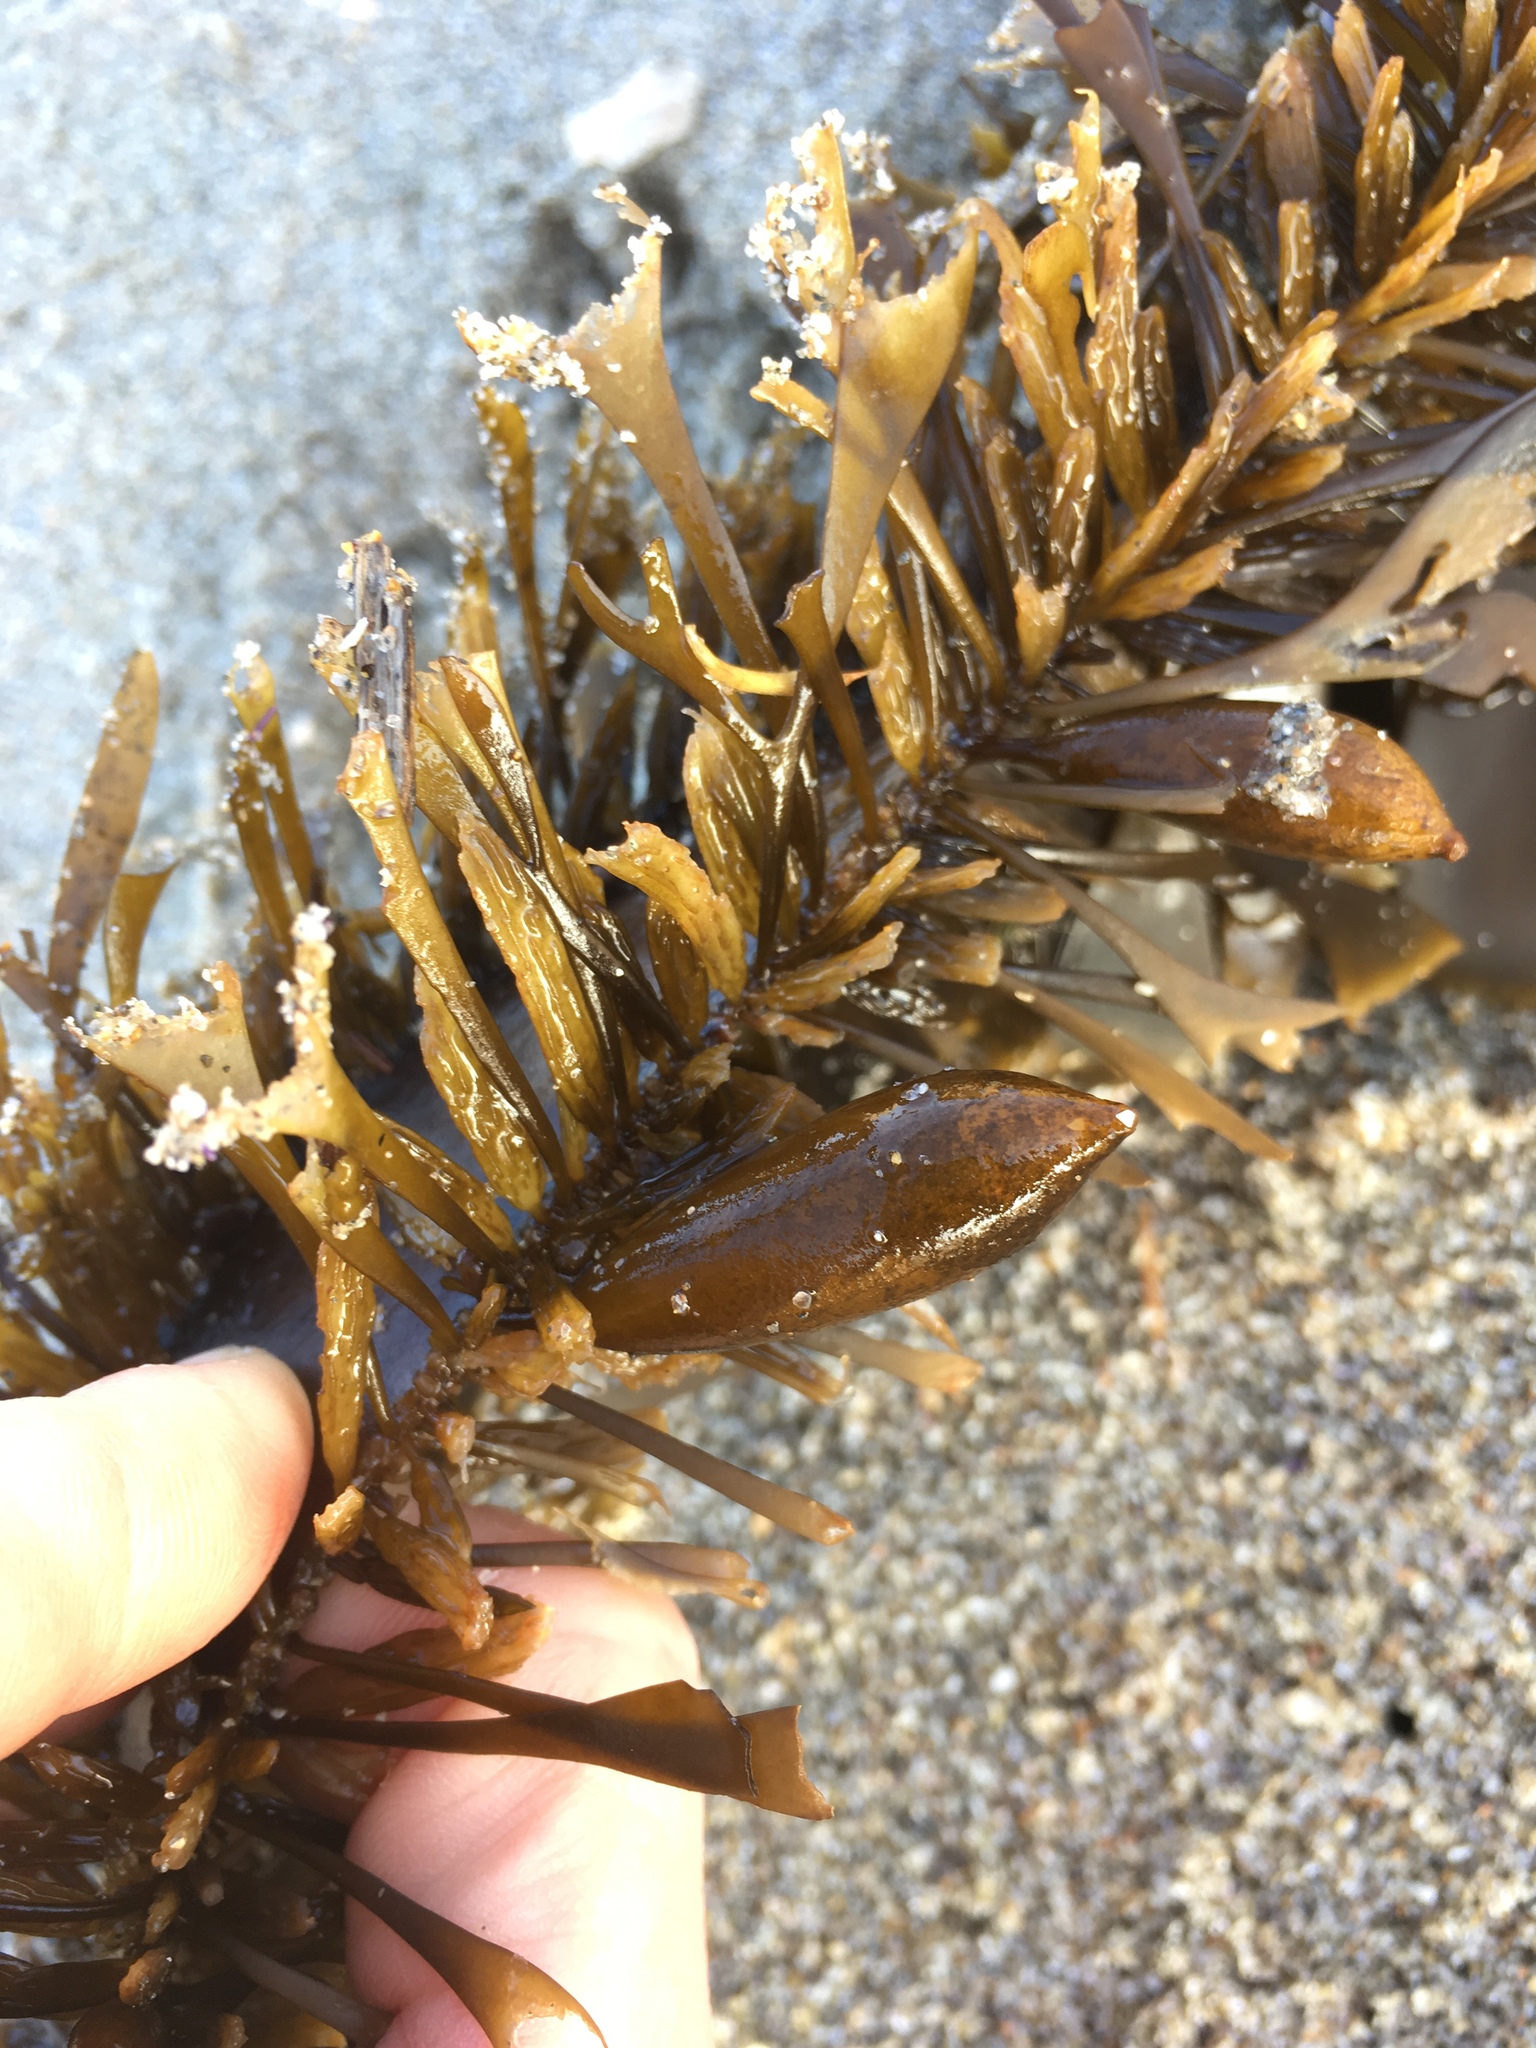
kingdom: Chromista
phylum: Ochrophyta
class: Phaeophyceae
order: Laminariales
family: Lessoniaceae
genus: Egregia
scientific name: Egregia menziesii
